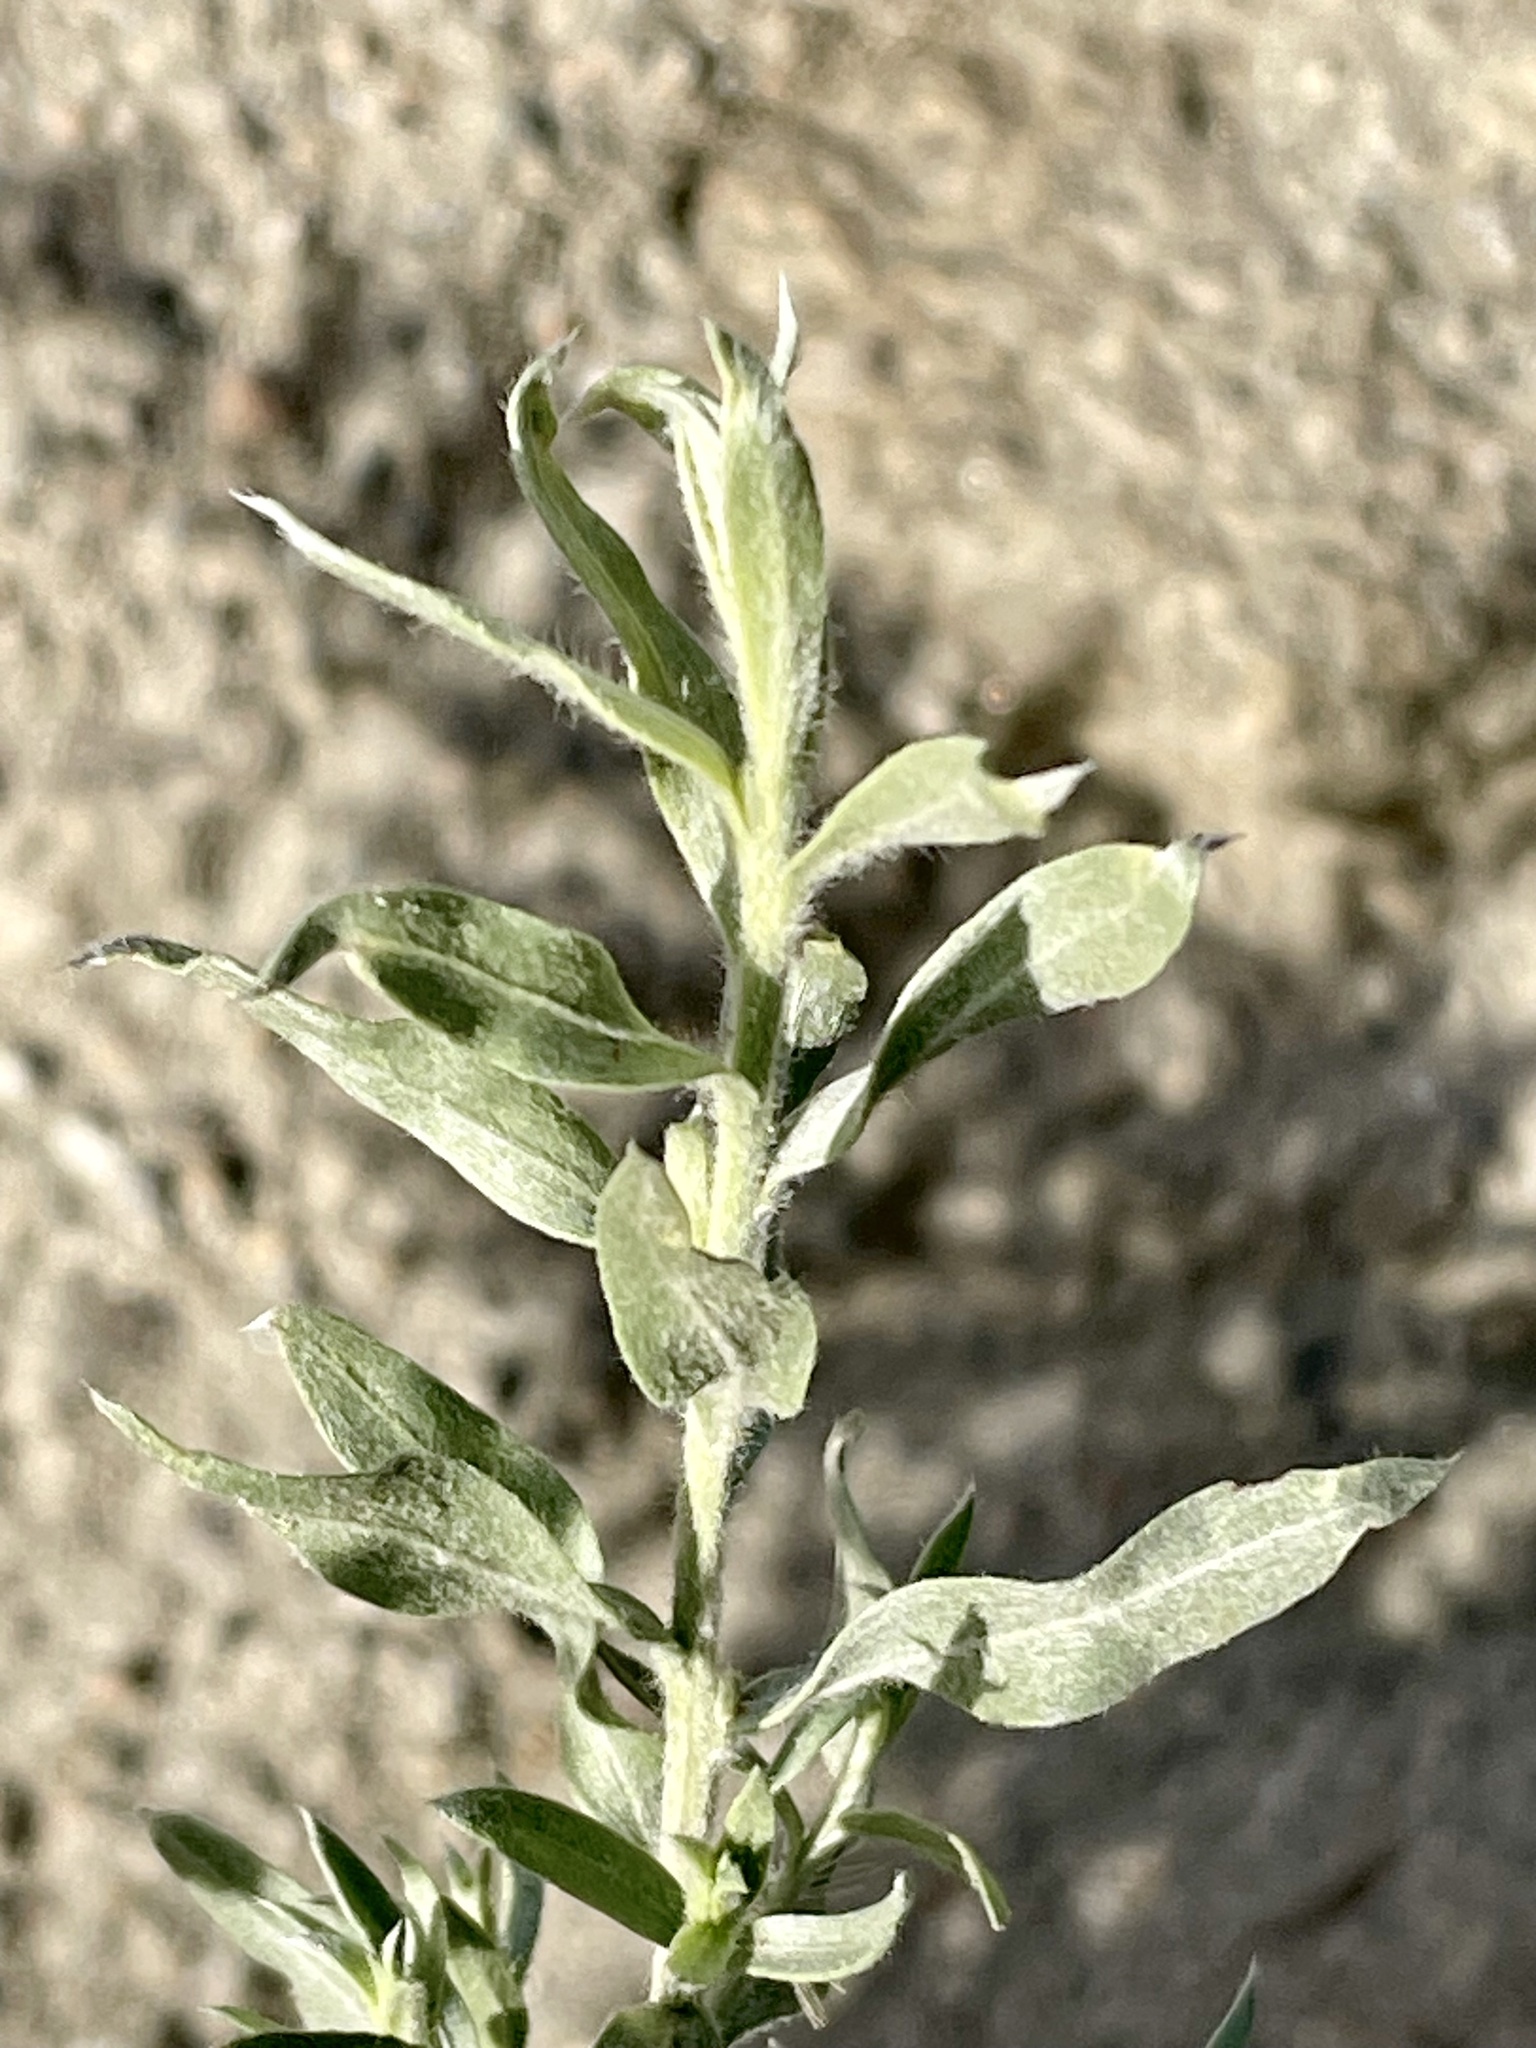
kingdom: Plantae
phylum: Tracheophyta
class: Magnoliopsida
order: Asterales
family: Asteraceae
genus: Pluchea
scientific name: Pluchea sericea
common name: Arrow-weed
